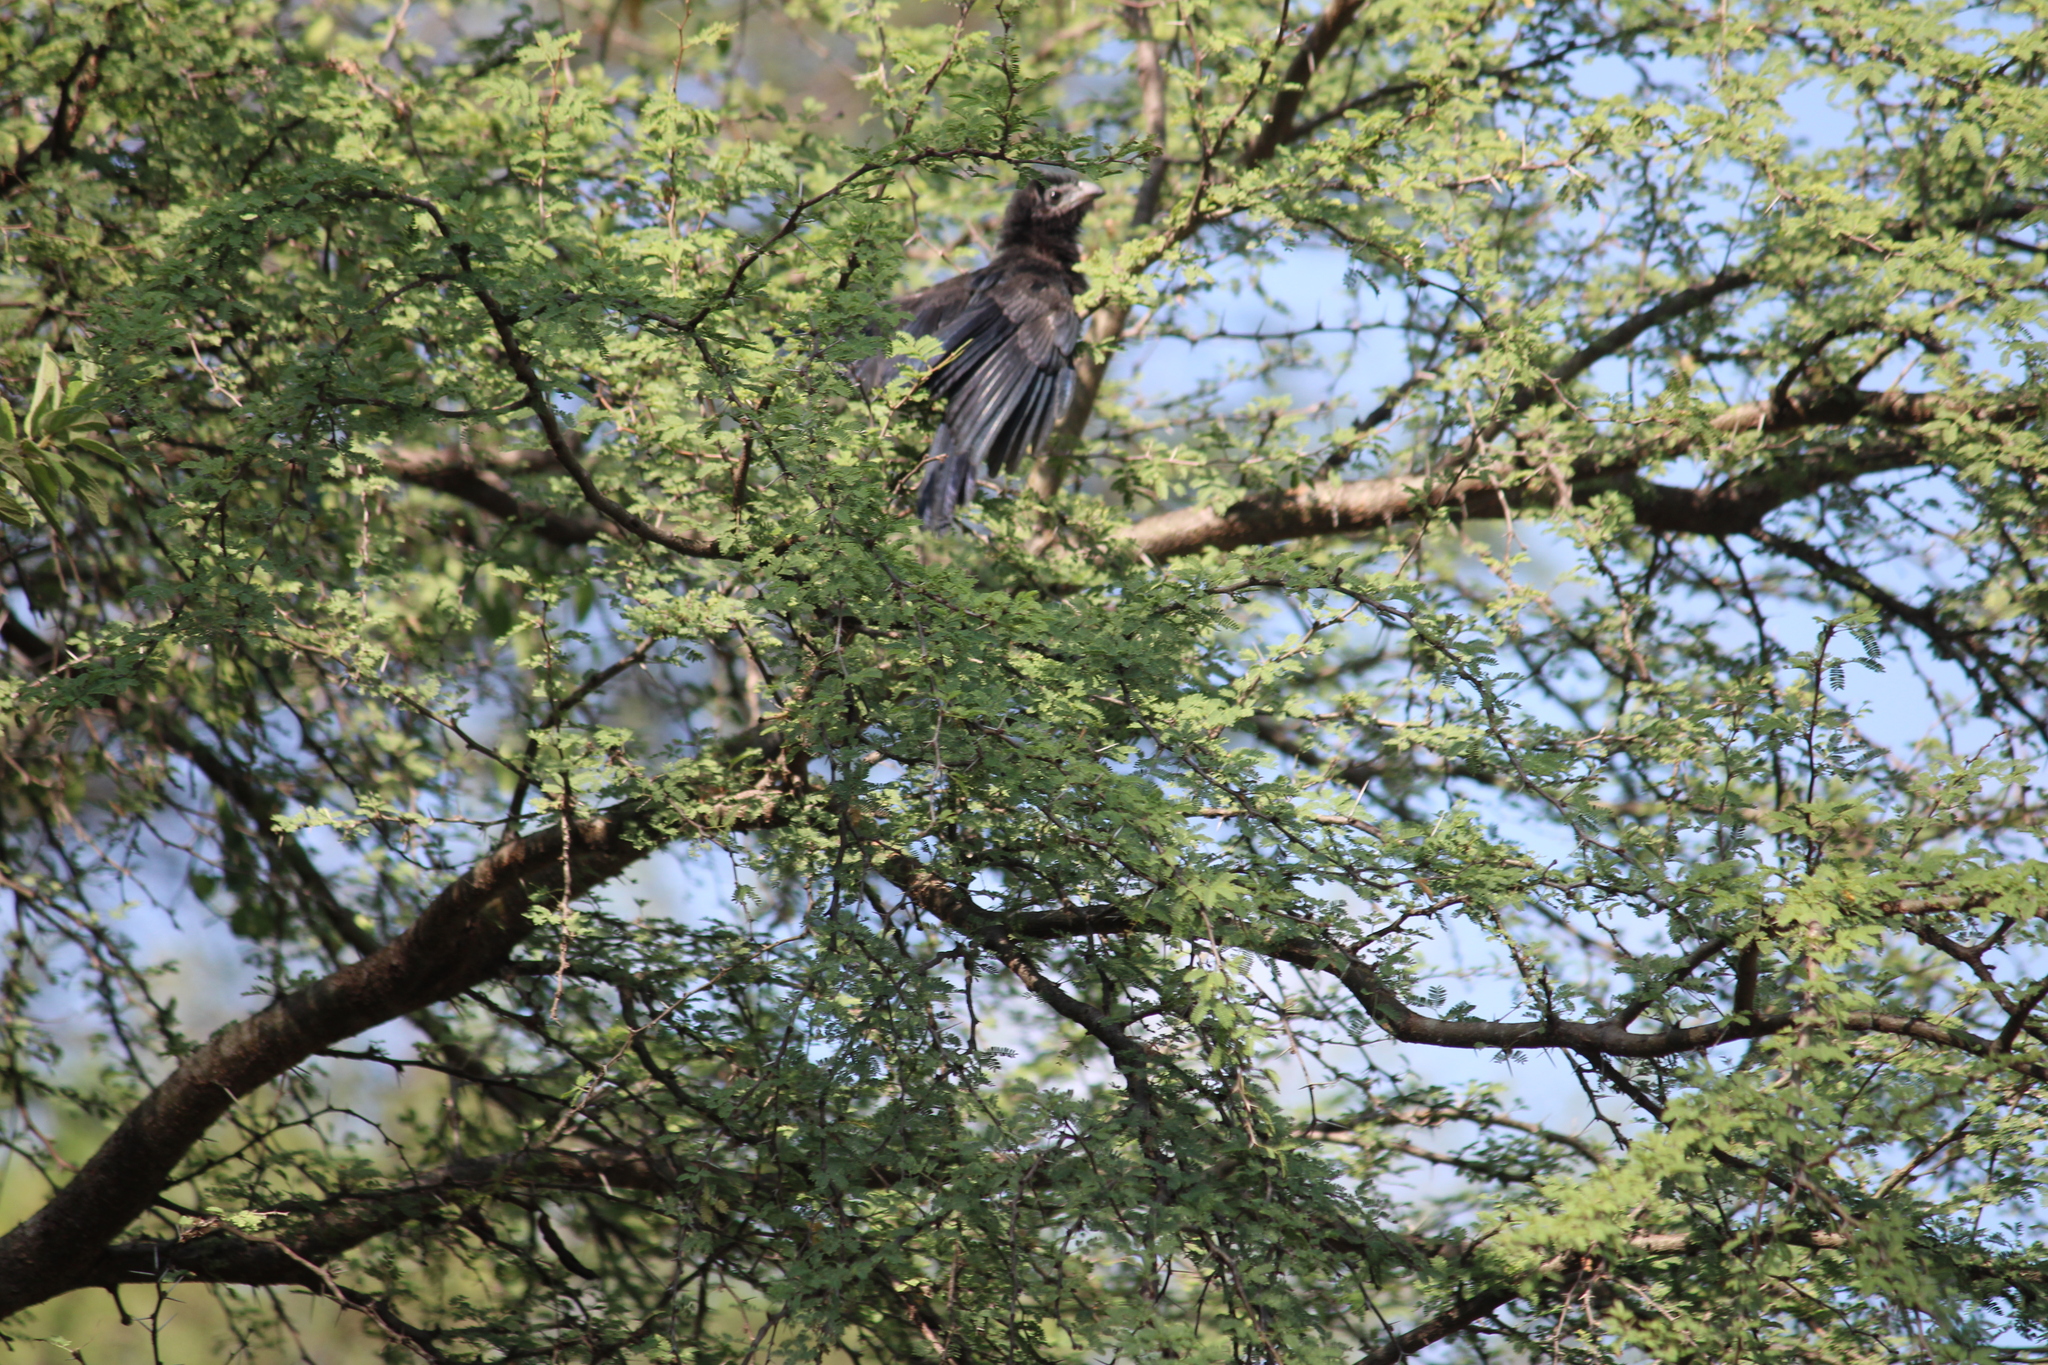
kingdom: Animalia
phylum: Chordata
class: Aves
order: Cuculiformes
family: Cuculidae
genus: Crotophaga
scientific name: Crotophaga sulcirostris
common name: Groove-billed ani
